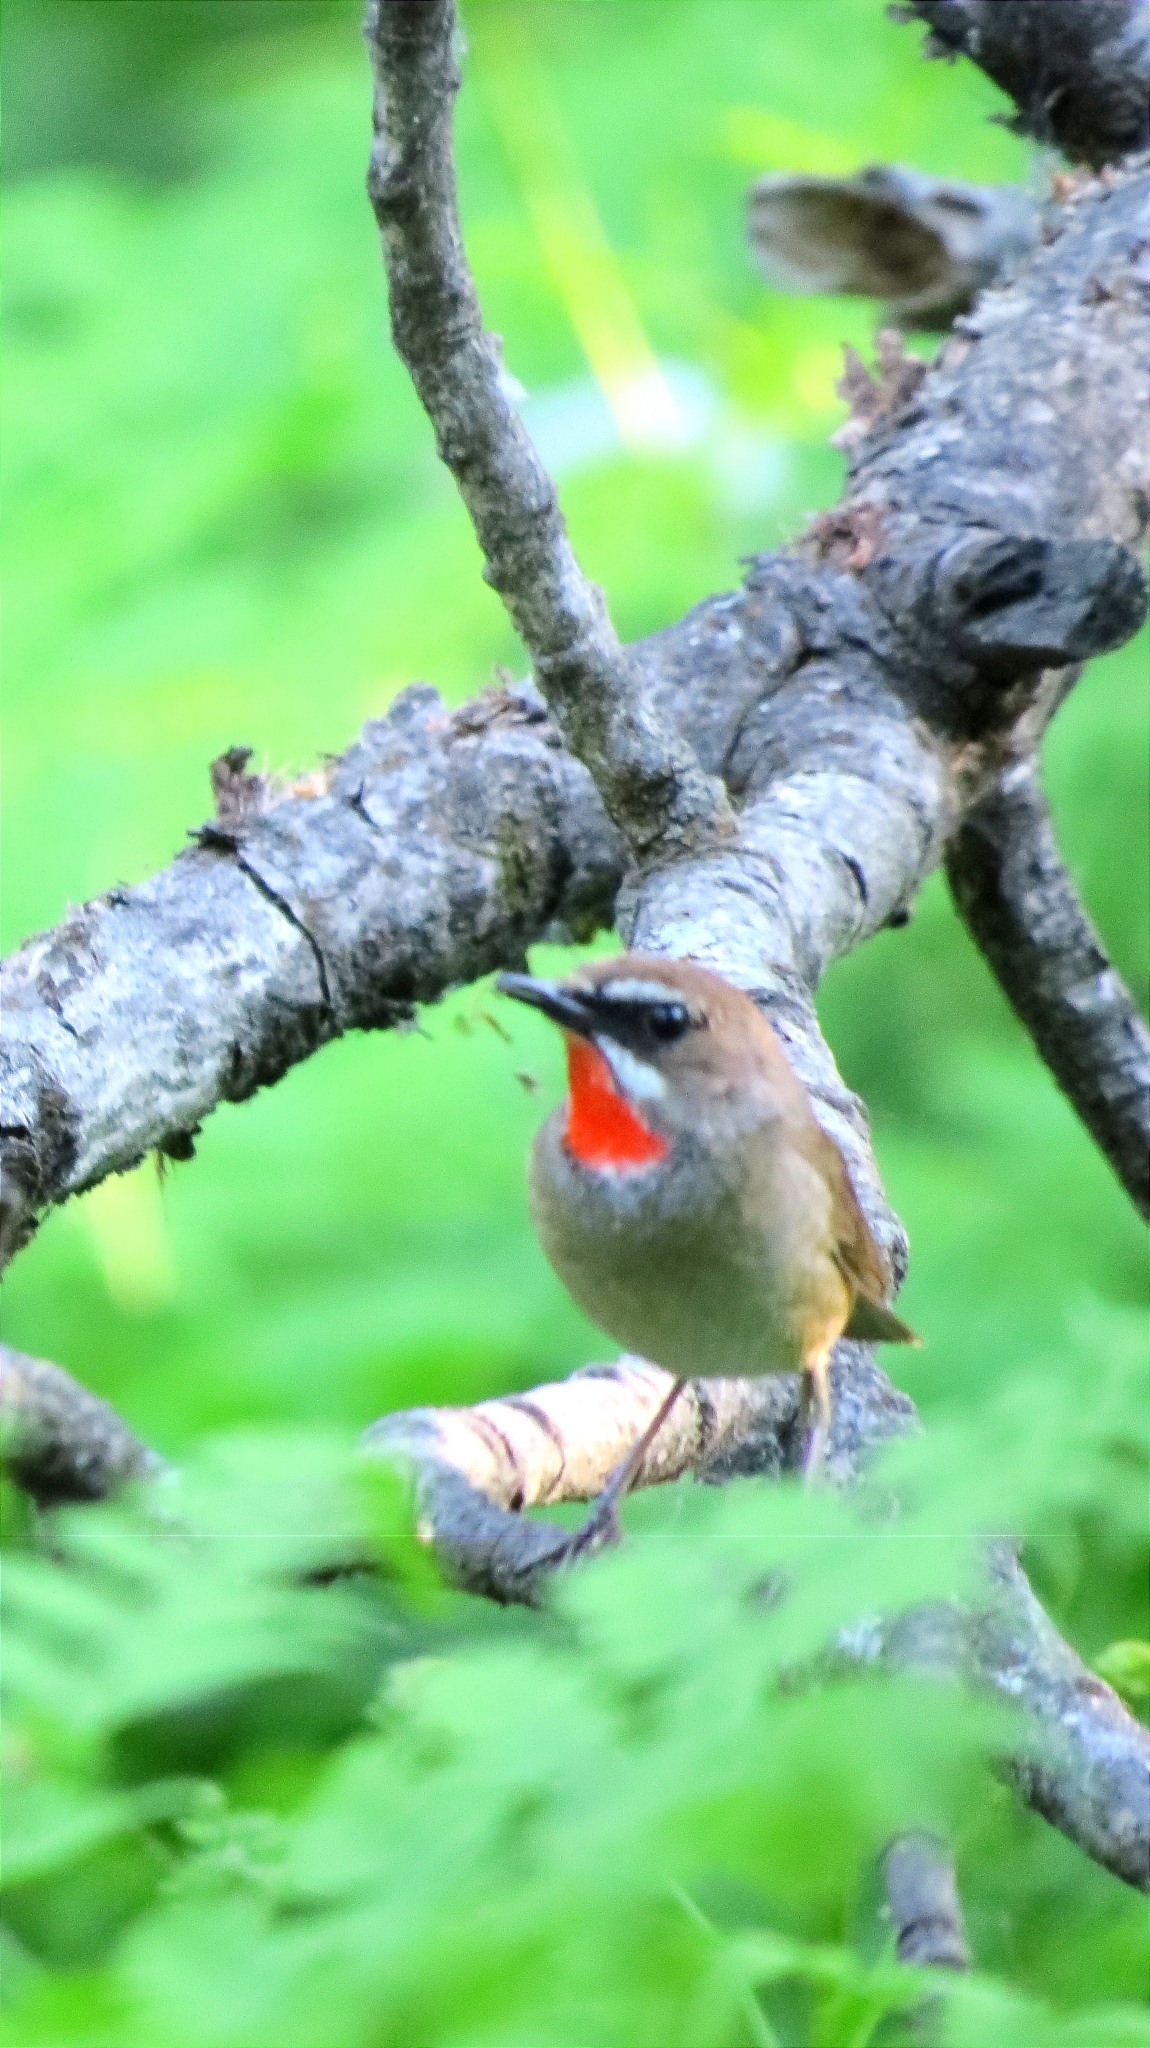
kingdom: Animalia
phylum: Chordata
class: Aves
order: Passeriformes
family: Muscicapidae
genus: Luscinia
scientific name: Luscinia calliope
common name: Siberian rubythroat
